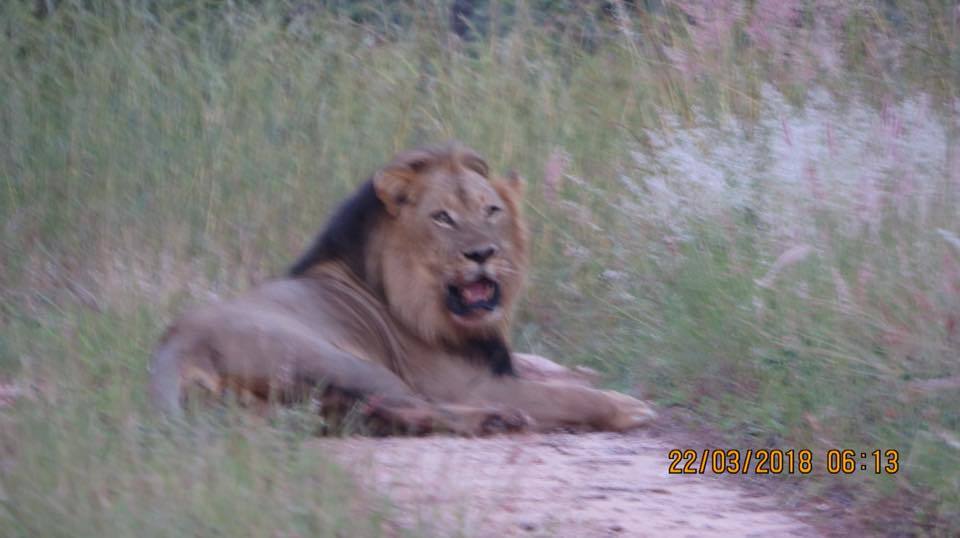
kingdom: Animalia
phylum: Chordata
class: Mammalia
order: Carnivora
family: Felidae
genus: Panthera
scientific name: Panthera leo
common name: Lion
